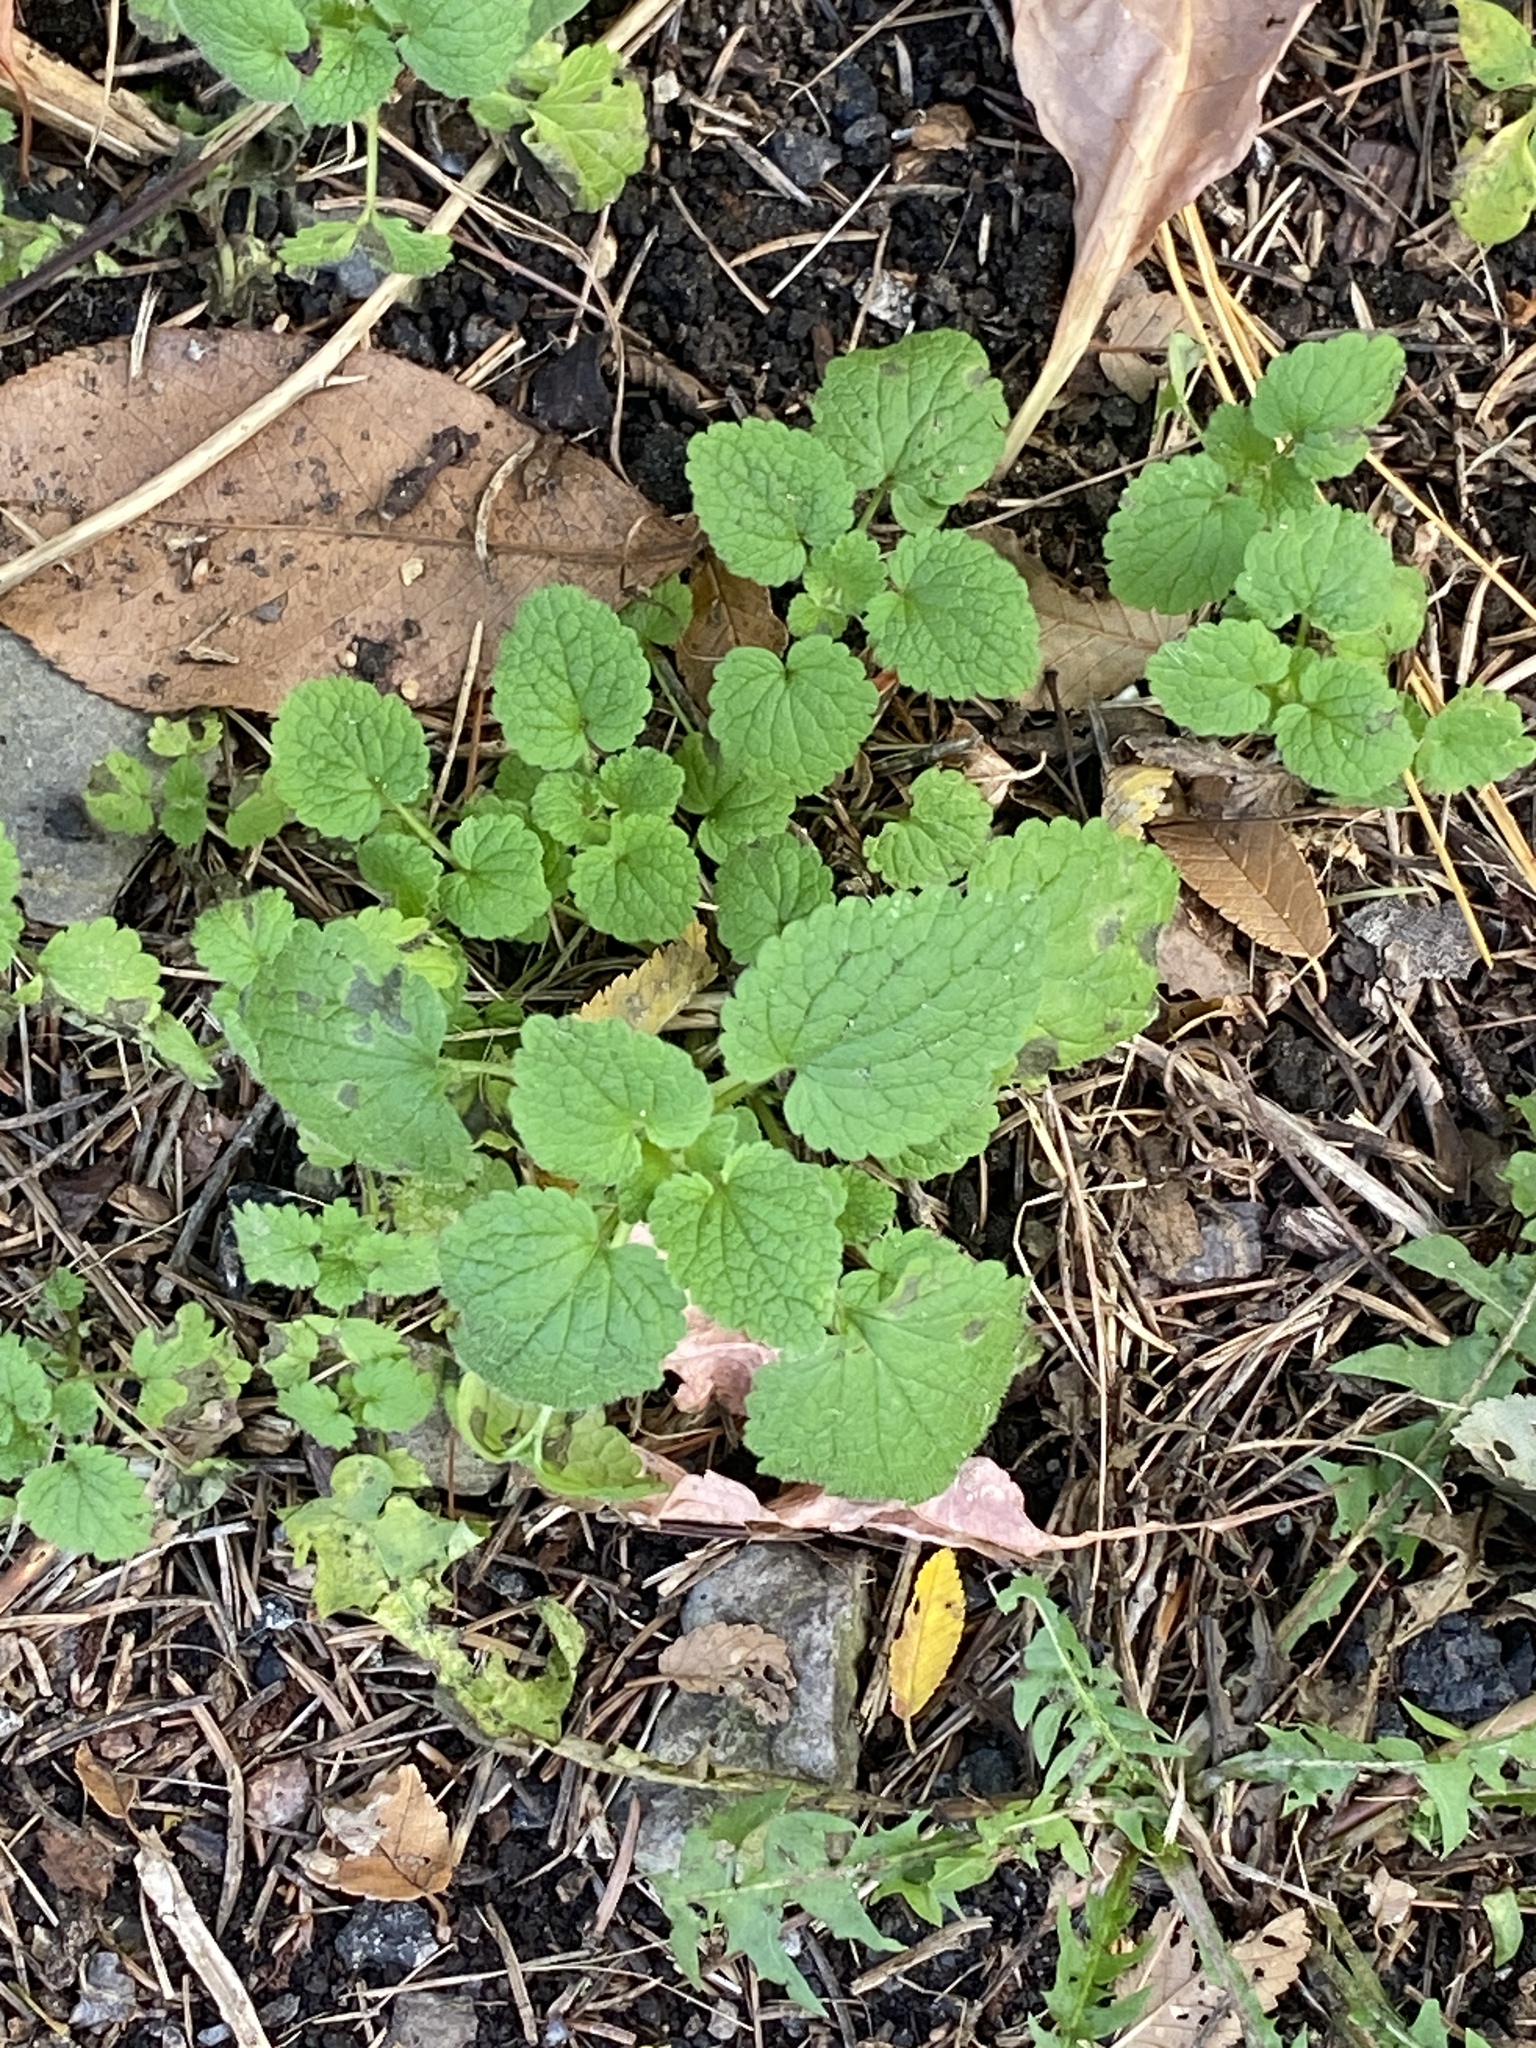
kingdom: Plantae
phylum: Tracheophyta
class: Magnoliopsida
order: Lamiales
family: Lamiaceae
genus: Lamium
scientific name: Lamium purpureum
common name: Red dead-nettle
